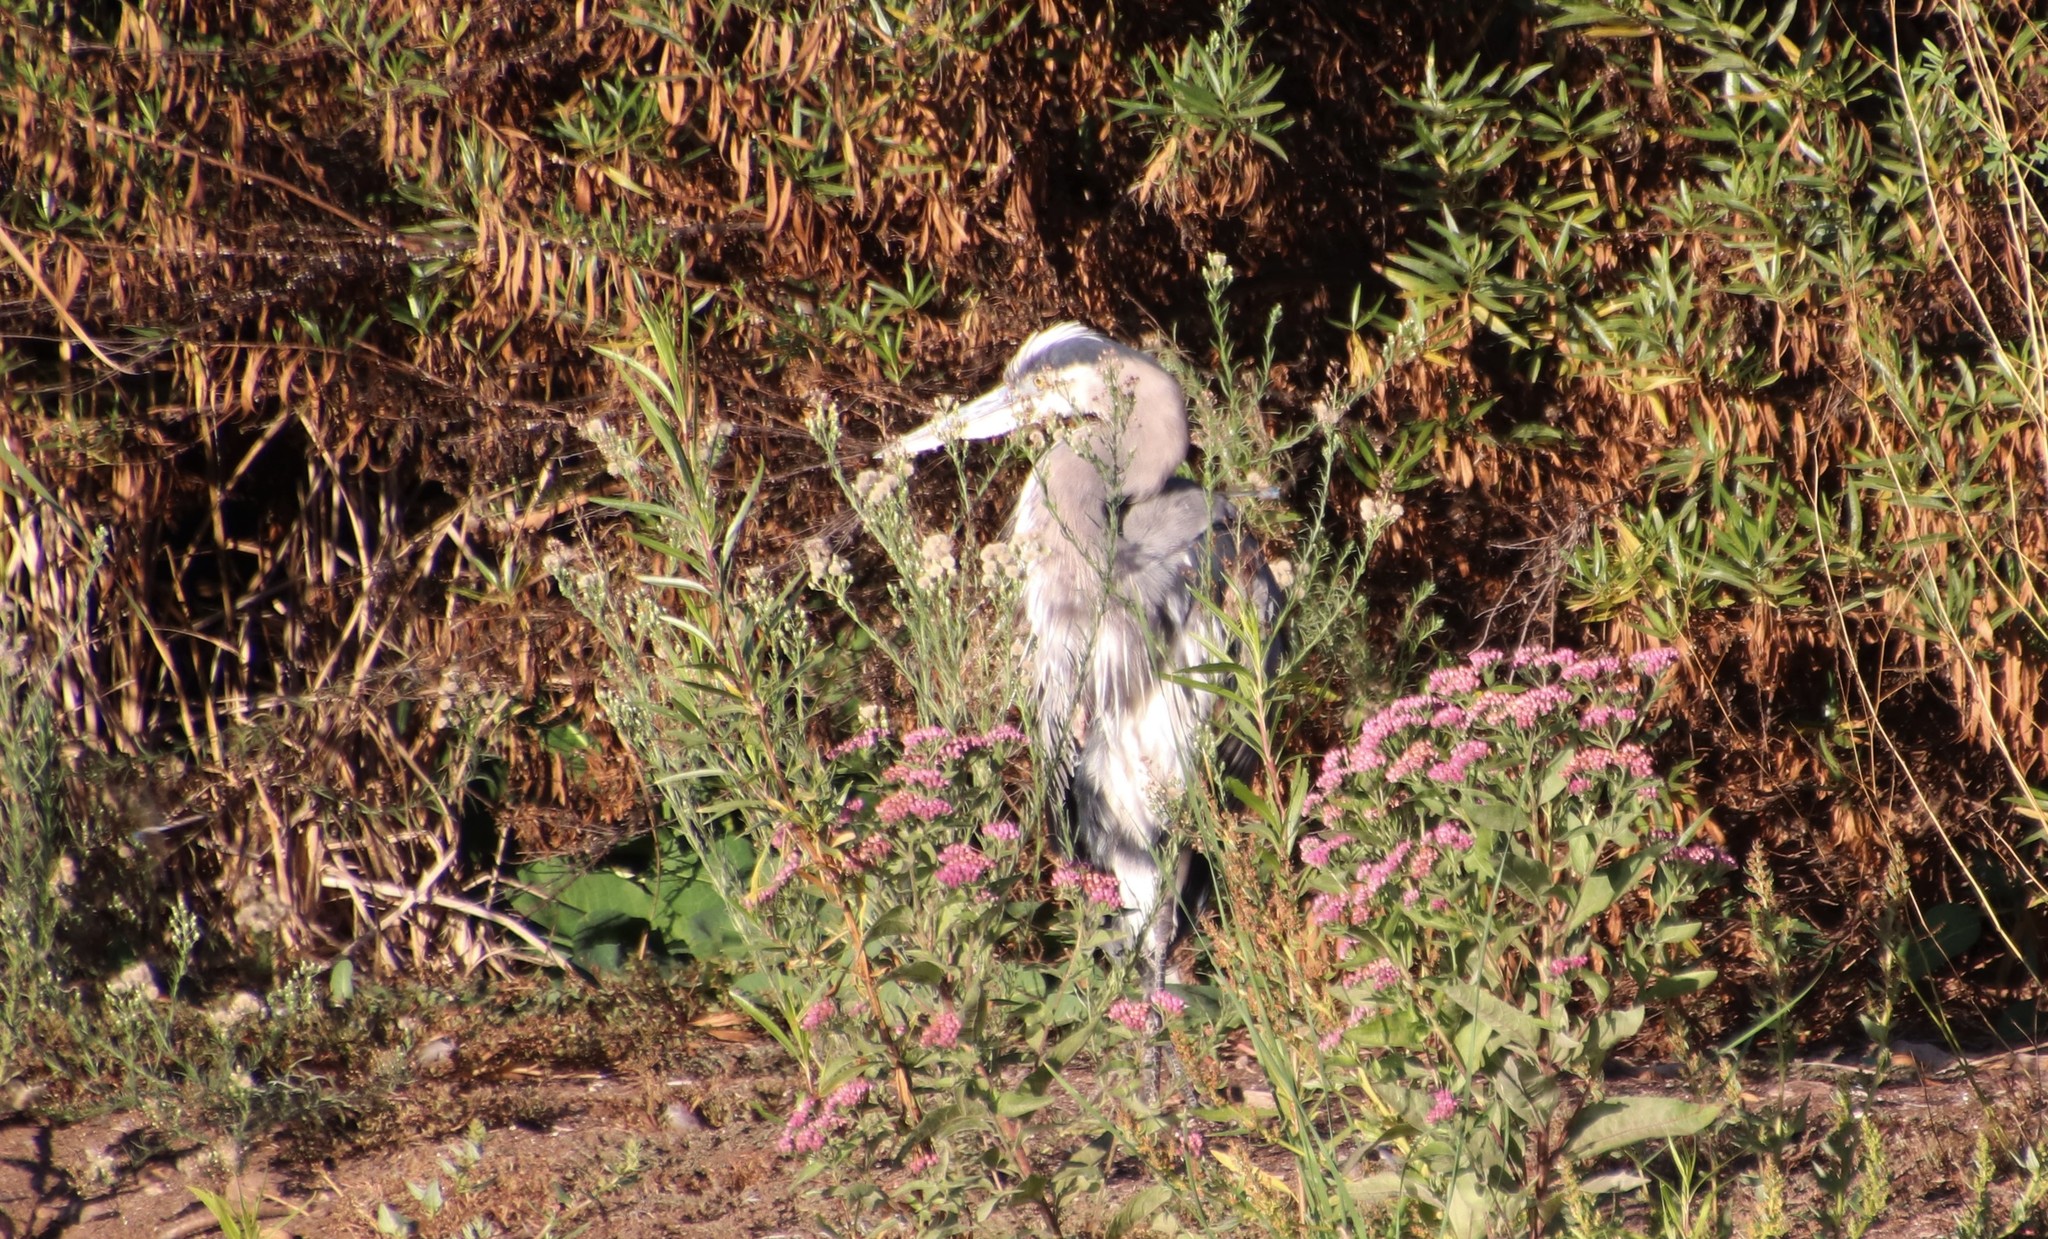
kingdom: Animalia
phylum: Chordata
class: Aves
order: Pelecaniformes
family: Ardeidae
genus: Ardea
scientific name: Ardea herodias
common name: Great blue heron
